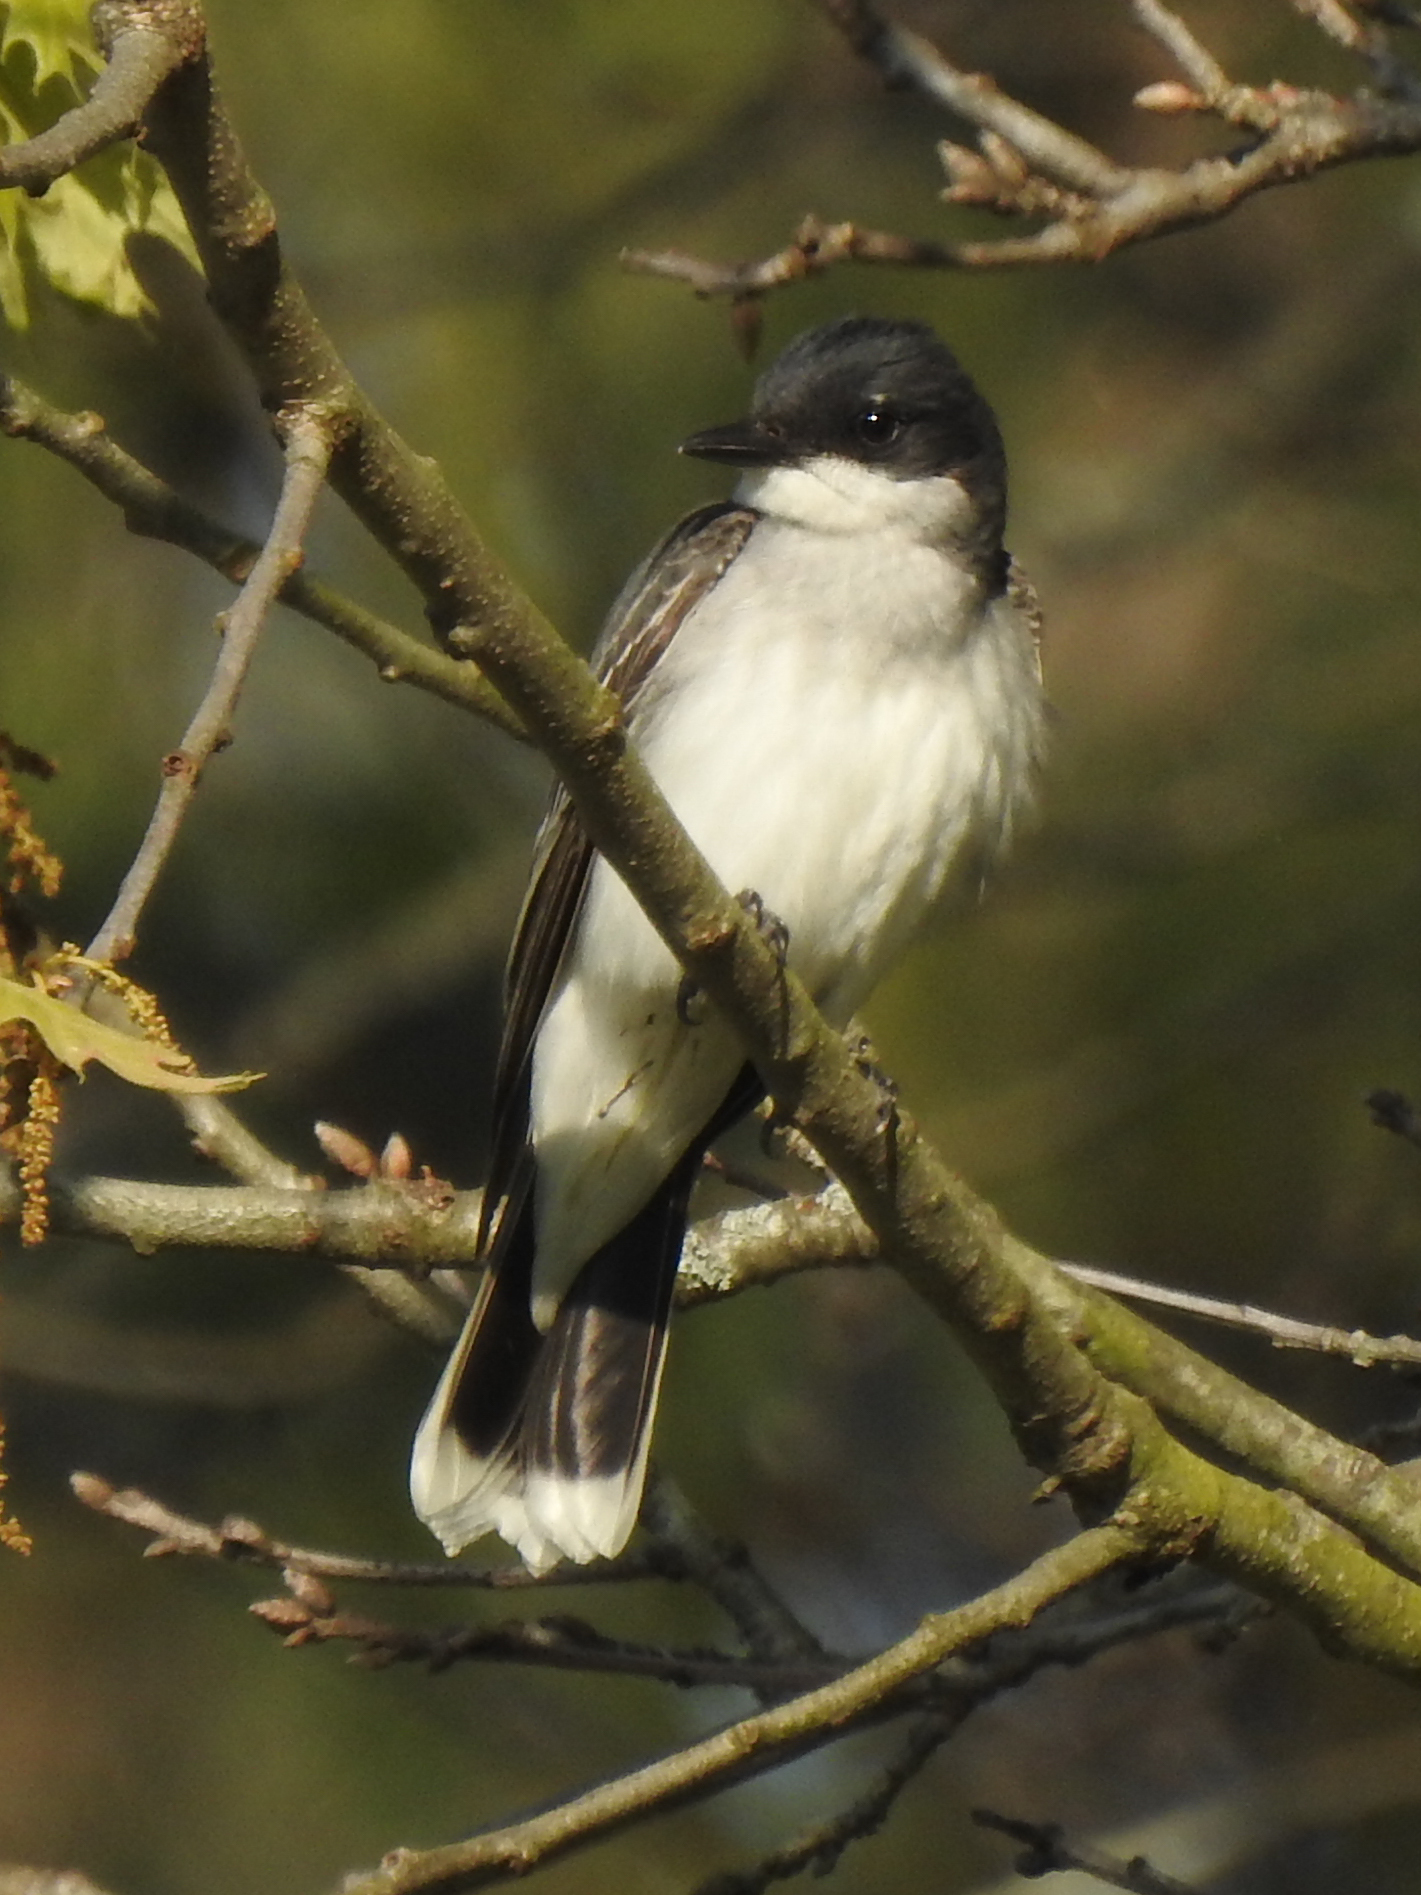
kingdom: Animalia
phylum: Chordata
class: Aves
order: Passeriformes
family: Tyrannidae
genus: Tyrannus
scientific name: Tyrannus tyrannus
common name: Eastern kingbird
